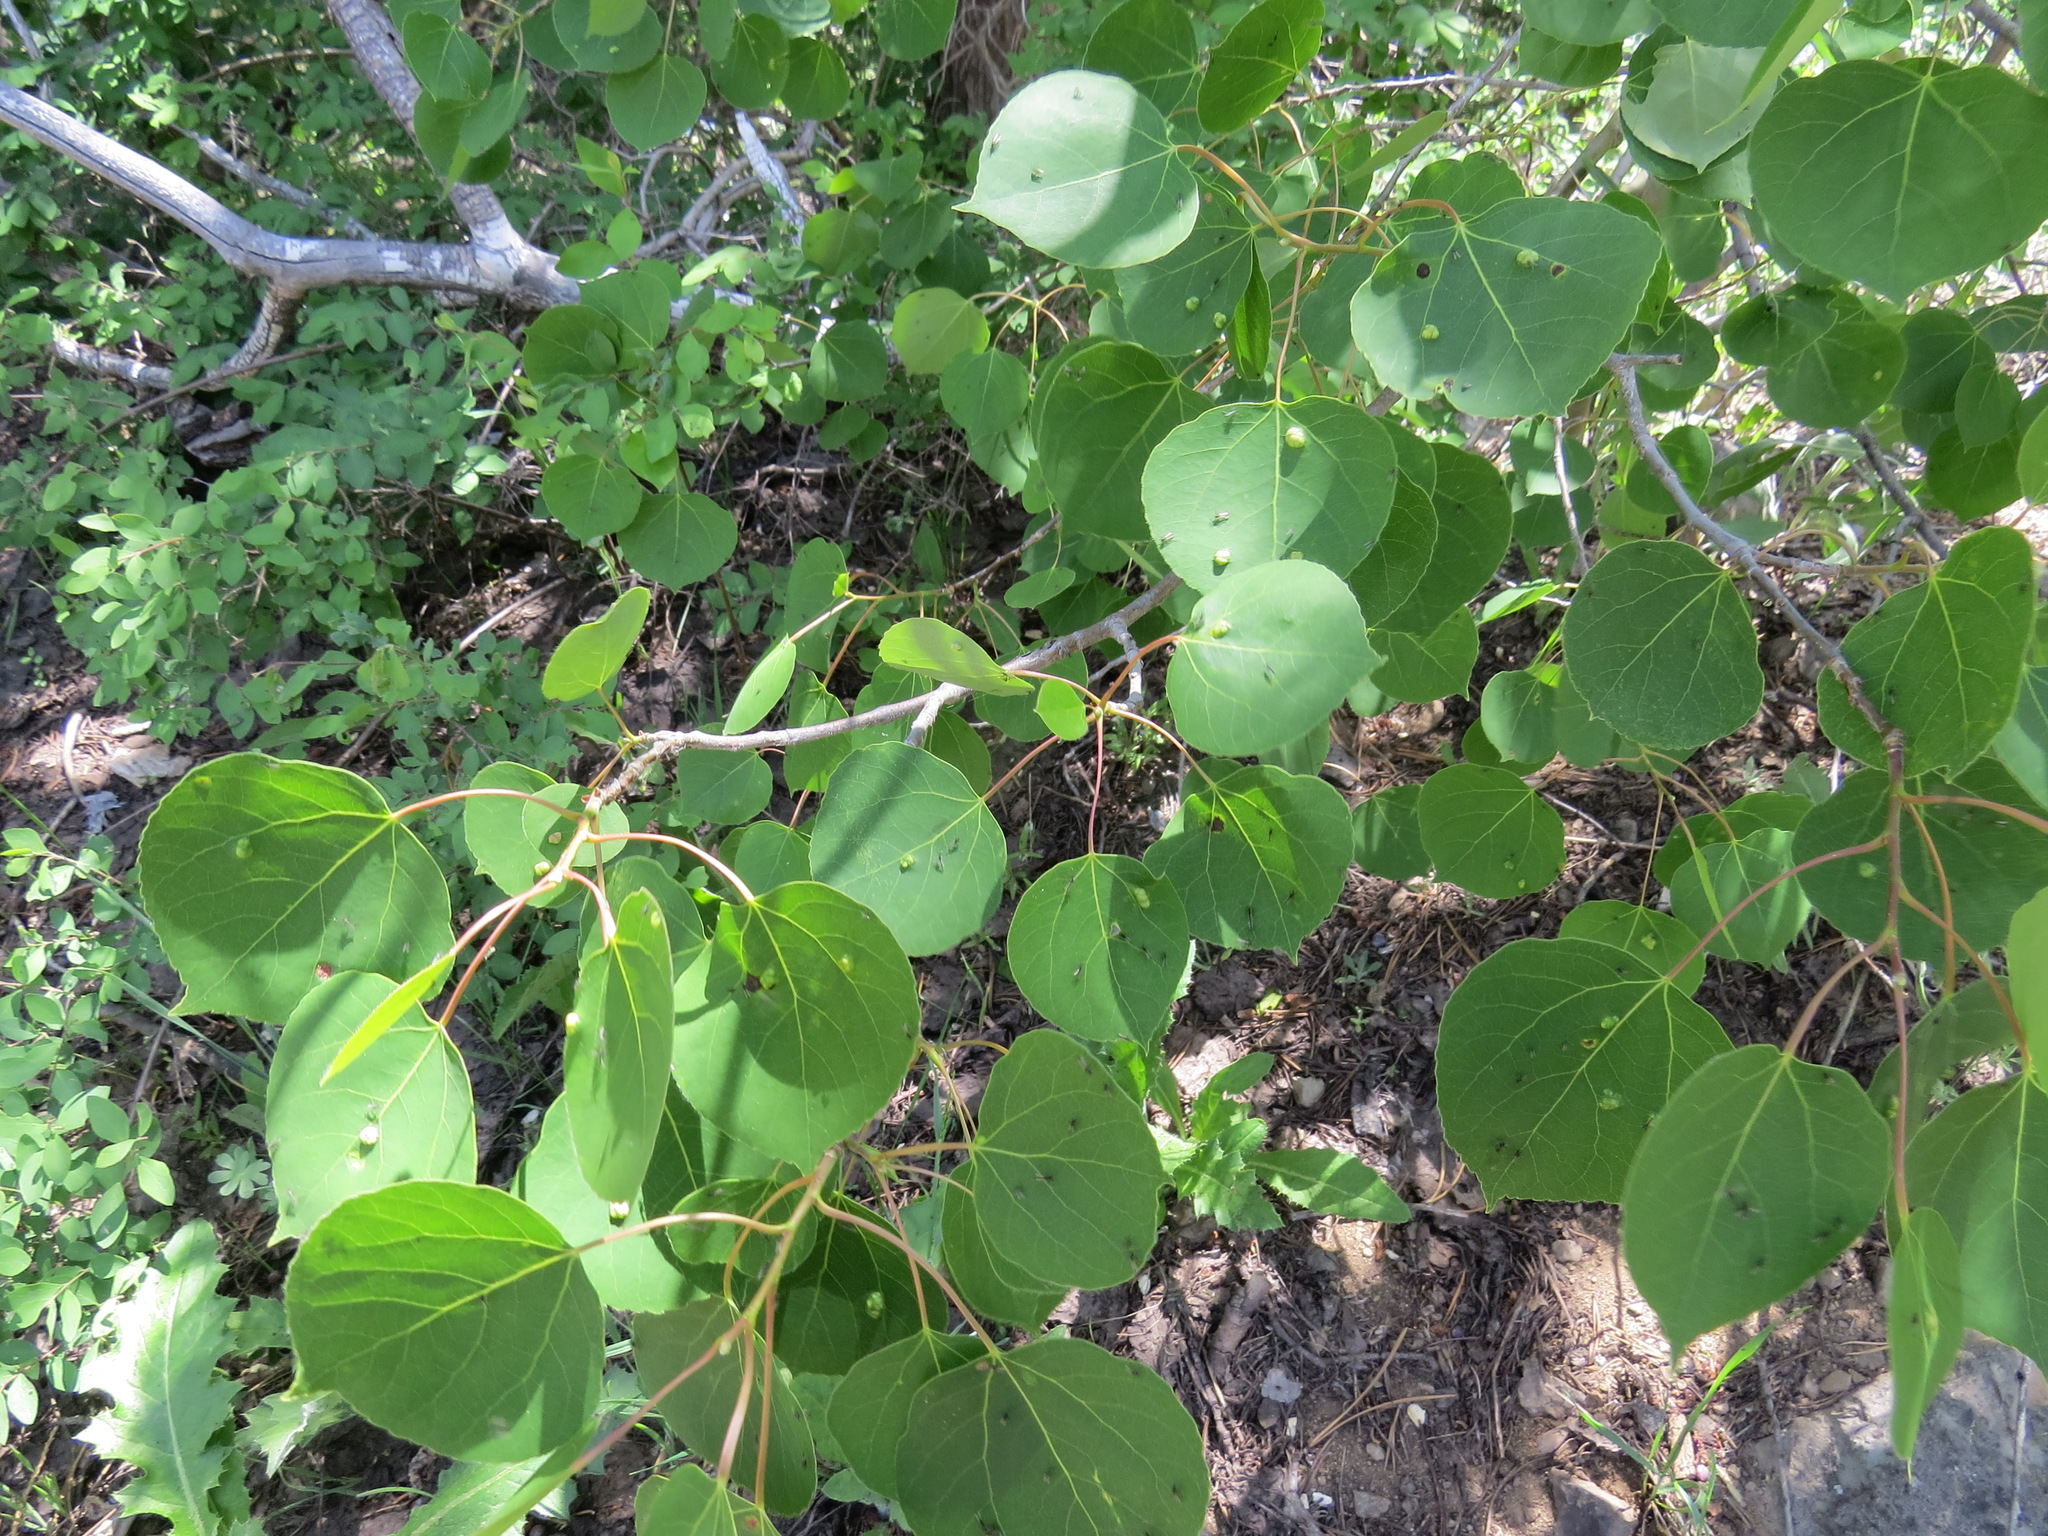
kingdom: Animalia
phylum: Arthropoda
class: Arachnida
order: Trombidiformes
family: Eriophyidae
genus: Phyllocoptes
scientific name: Phyllocoptes
